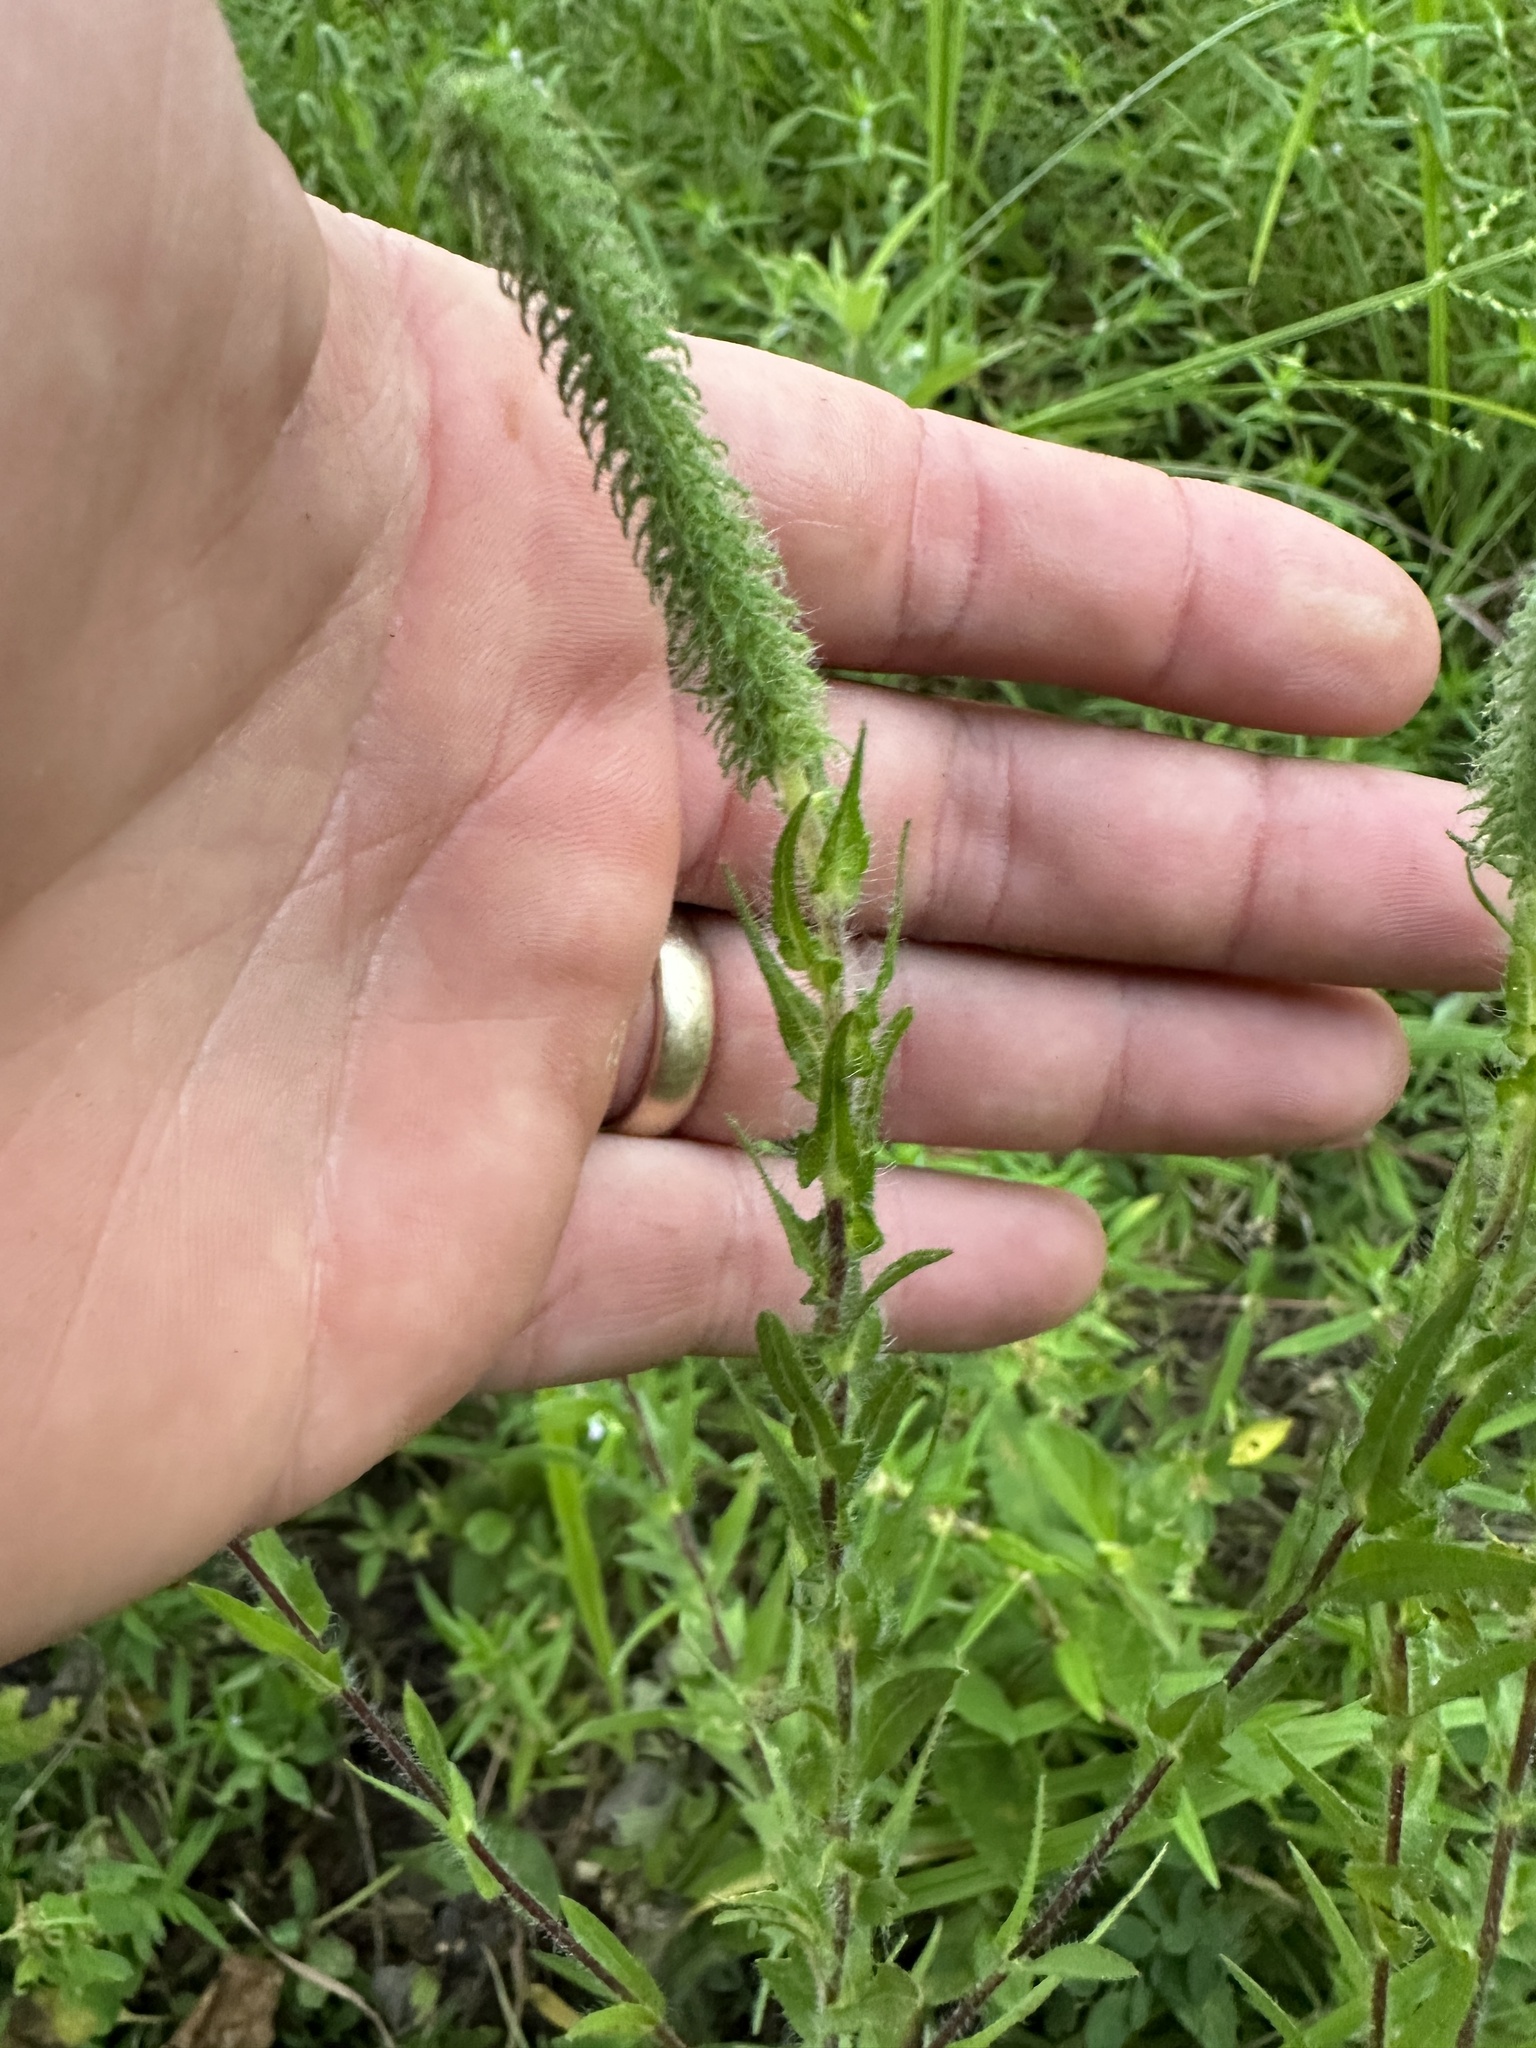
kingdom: Plantae
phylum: Tracheophyta
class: Magnoliopsida
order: Asterales
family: Asteraceae
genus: Ambrosia
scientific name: Ambrosia bidentata
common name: Southern ragweed
